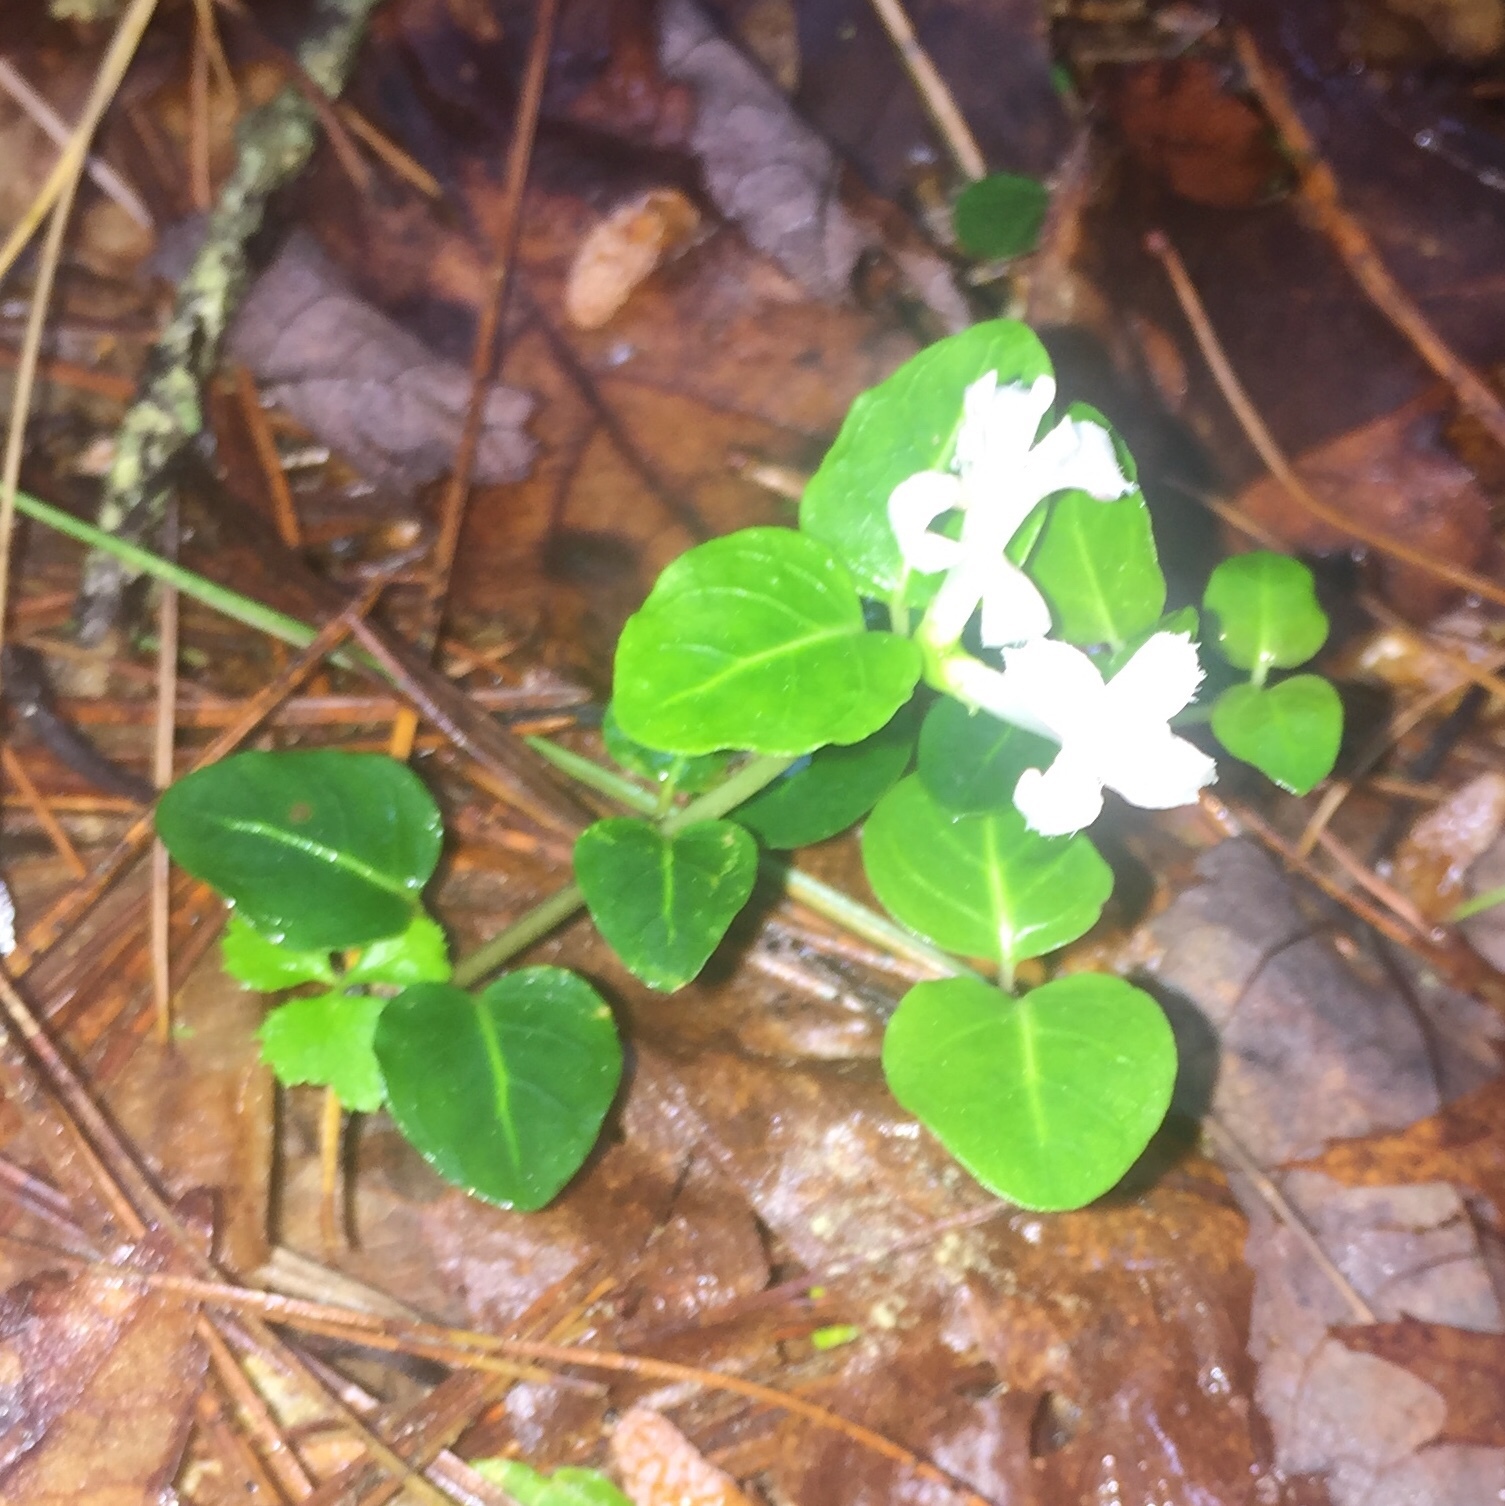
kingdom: Plantae
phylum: Tracheophyta
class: Magnoliopsida
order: Gentianales
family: Rubiaceae
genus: Mitchella
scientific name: Mitchella repens
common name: Partridge-berry
